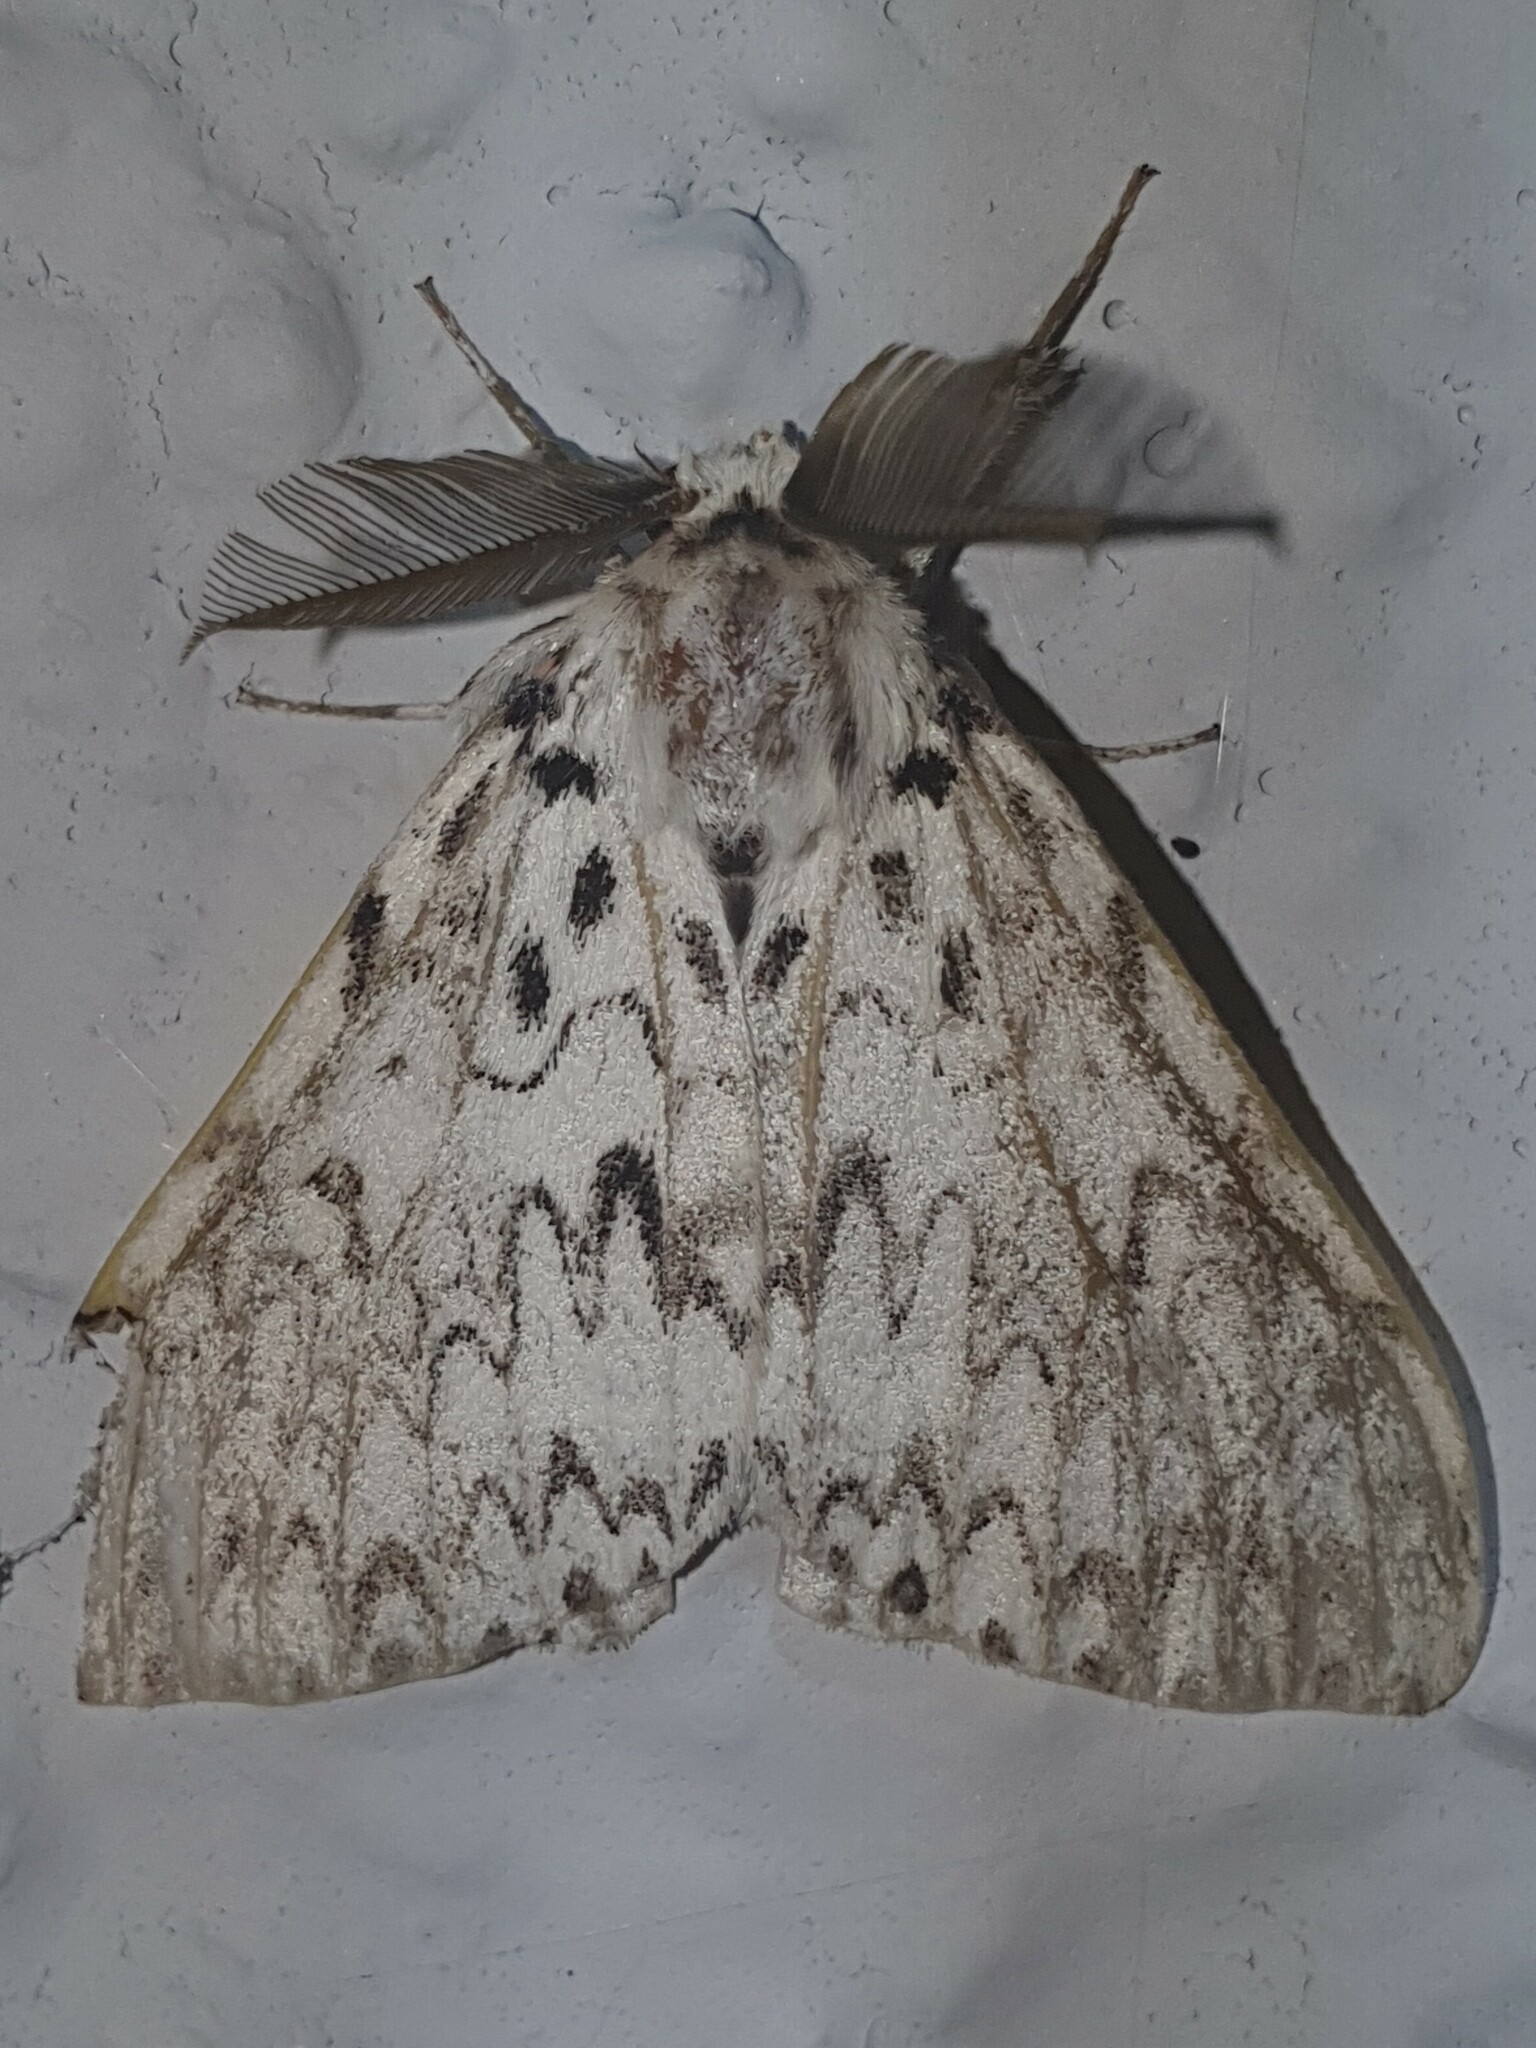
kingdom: Animalia
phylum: Arthropoda
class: Insecta
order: Lepidoptera
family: Erebidae
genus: Lymantria
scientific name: Lymantria monacha
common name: Black arches
